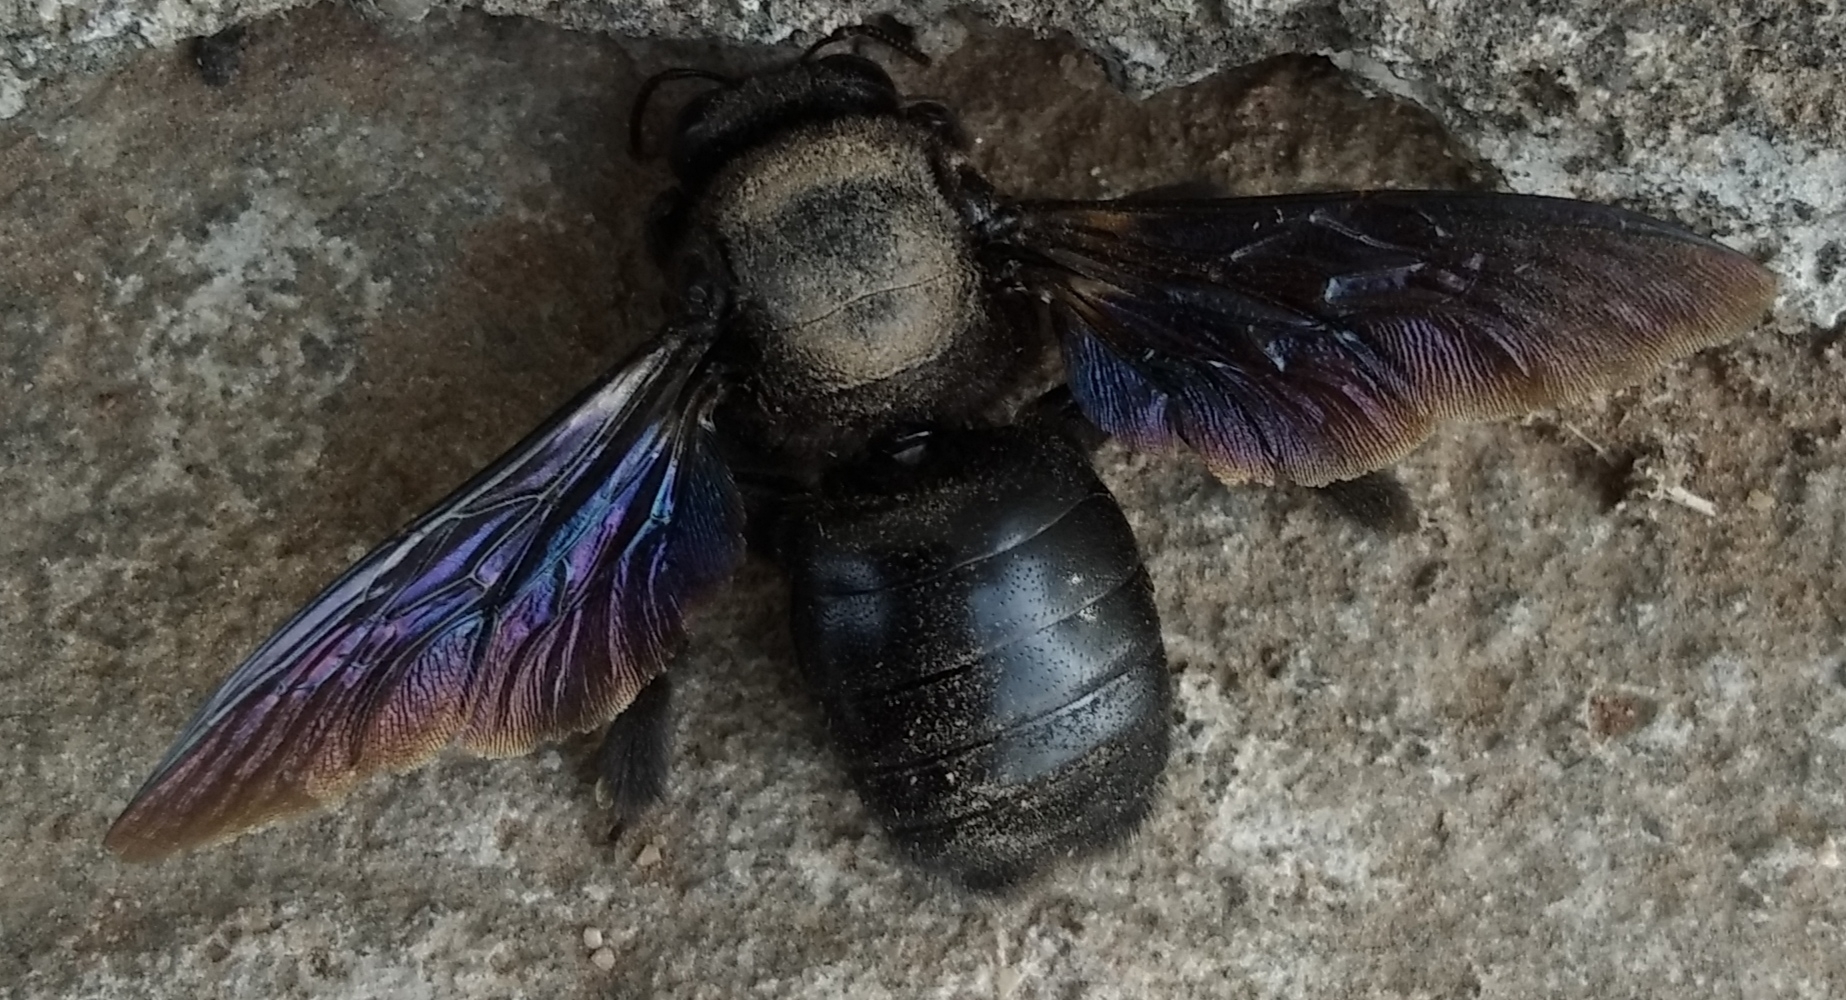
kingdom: Animalia
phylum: Arthropoda
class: Insecta
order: Hymenoptera
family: Apidae
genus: Xylocopa
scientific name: Xylocopa fenestrata
